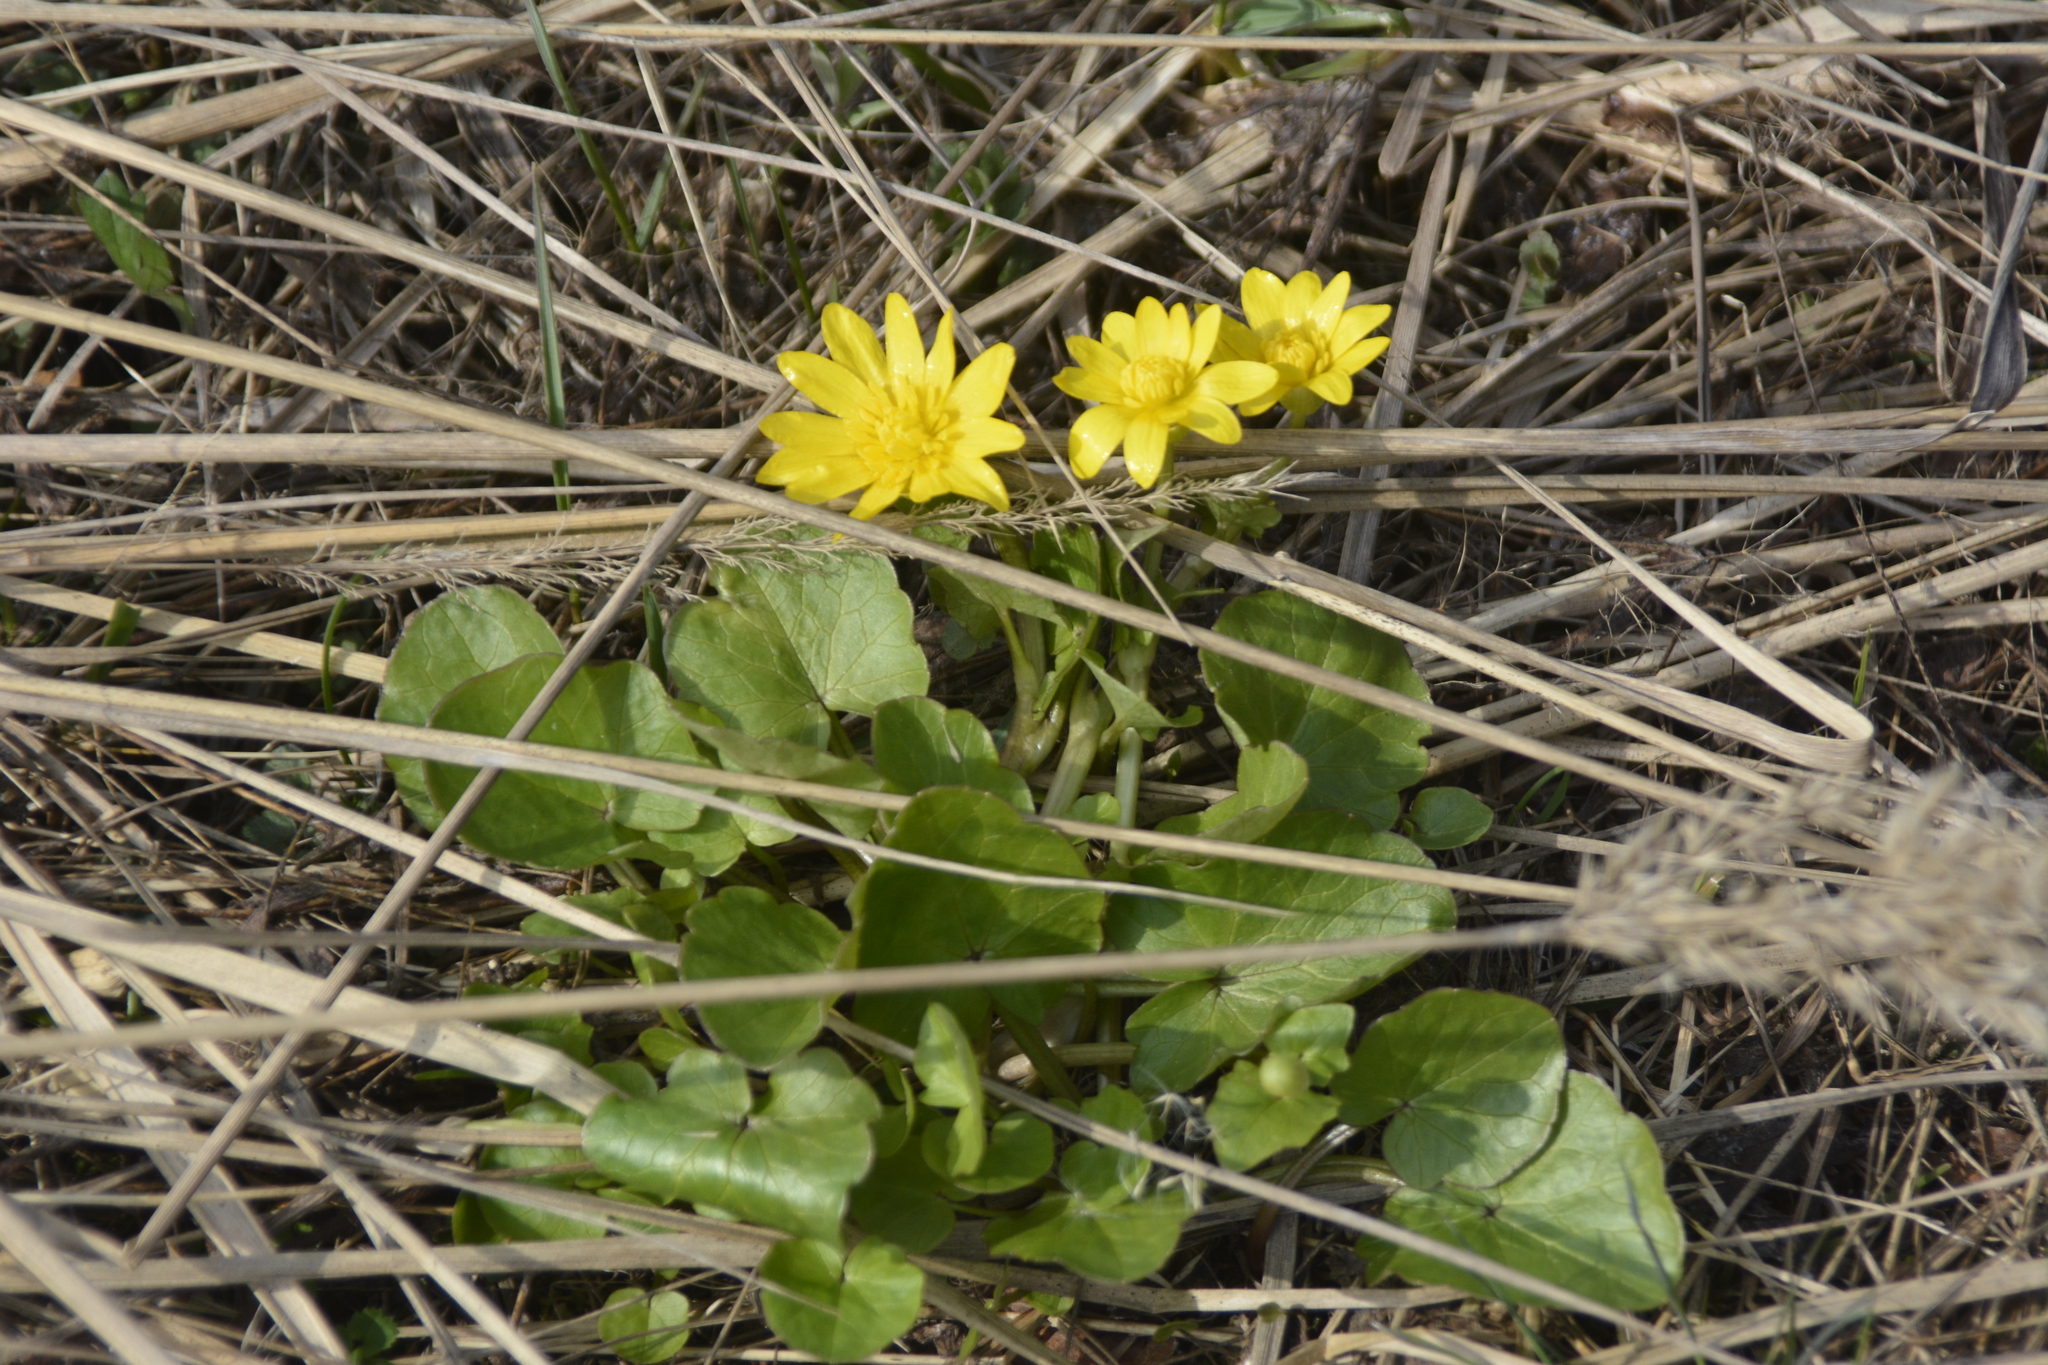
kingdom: Plantae
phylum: Tracheophyta
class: Magnoliopsida
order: Ranunculales
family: Ranunculaceae
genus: Ficaria
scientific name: Ficaria verna
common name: Lesser celandine
